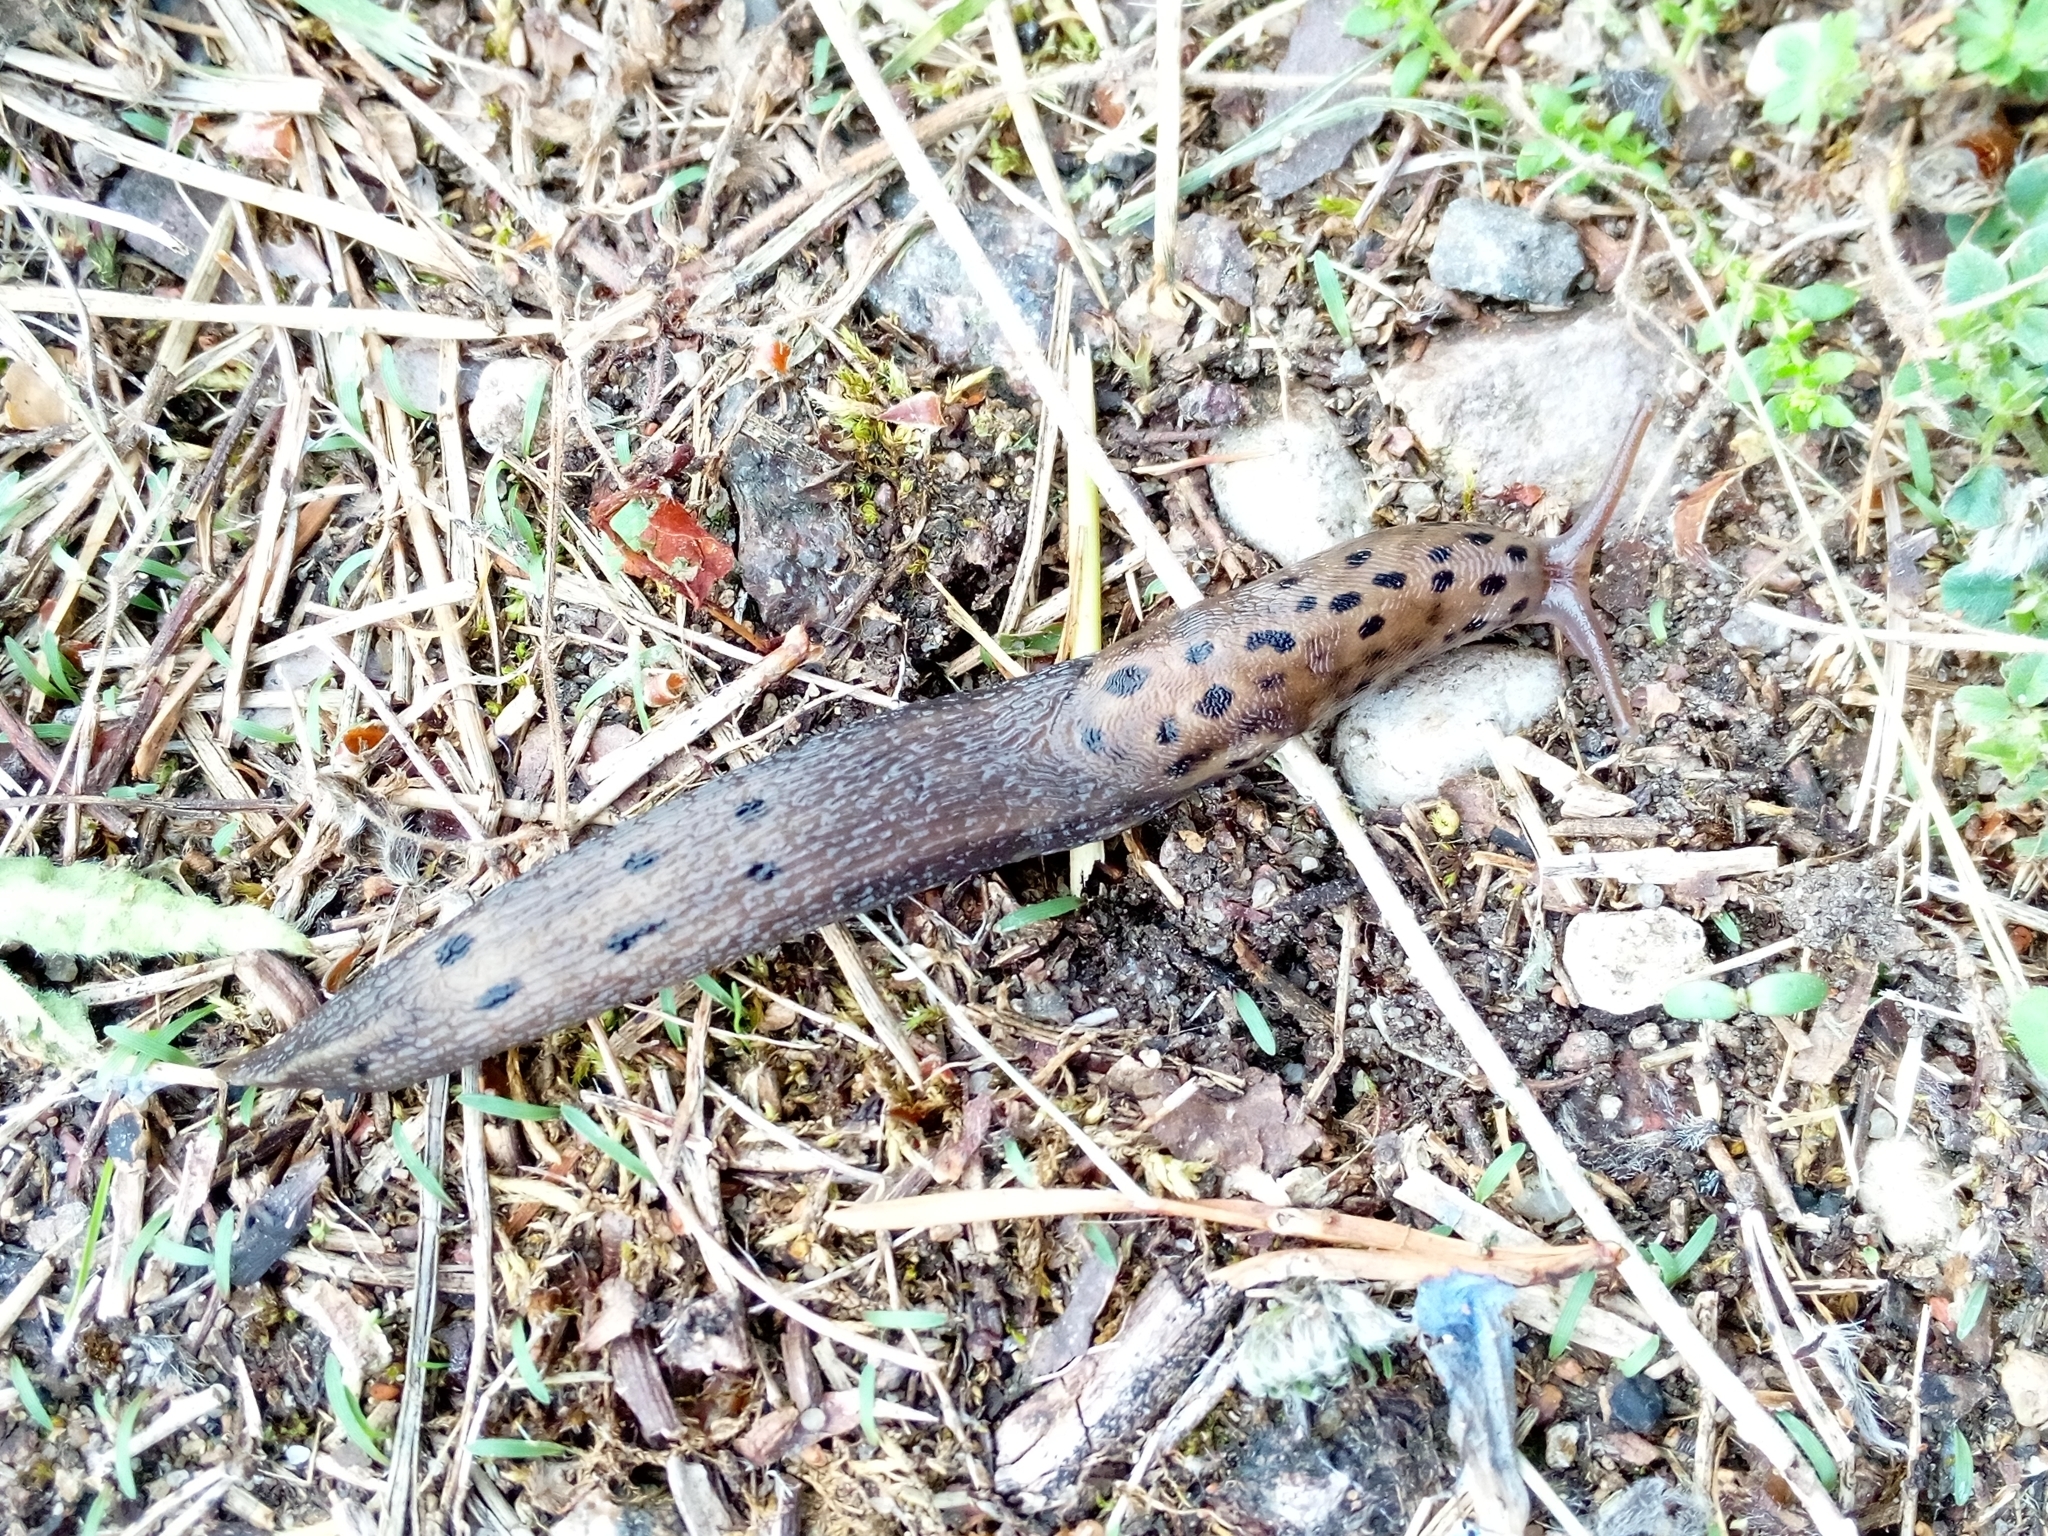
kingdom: Animalia
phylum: Mollusca
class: Gastropoda
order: Stylommatophora
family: Limacidae
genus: Limax
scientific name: Limax maximus
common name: Great grey slug
